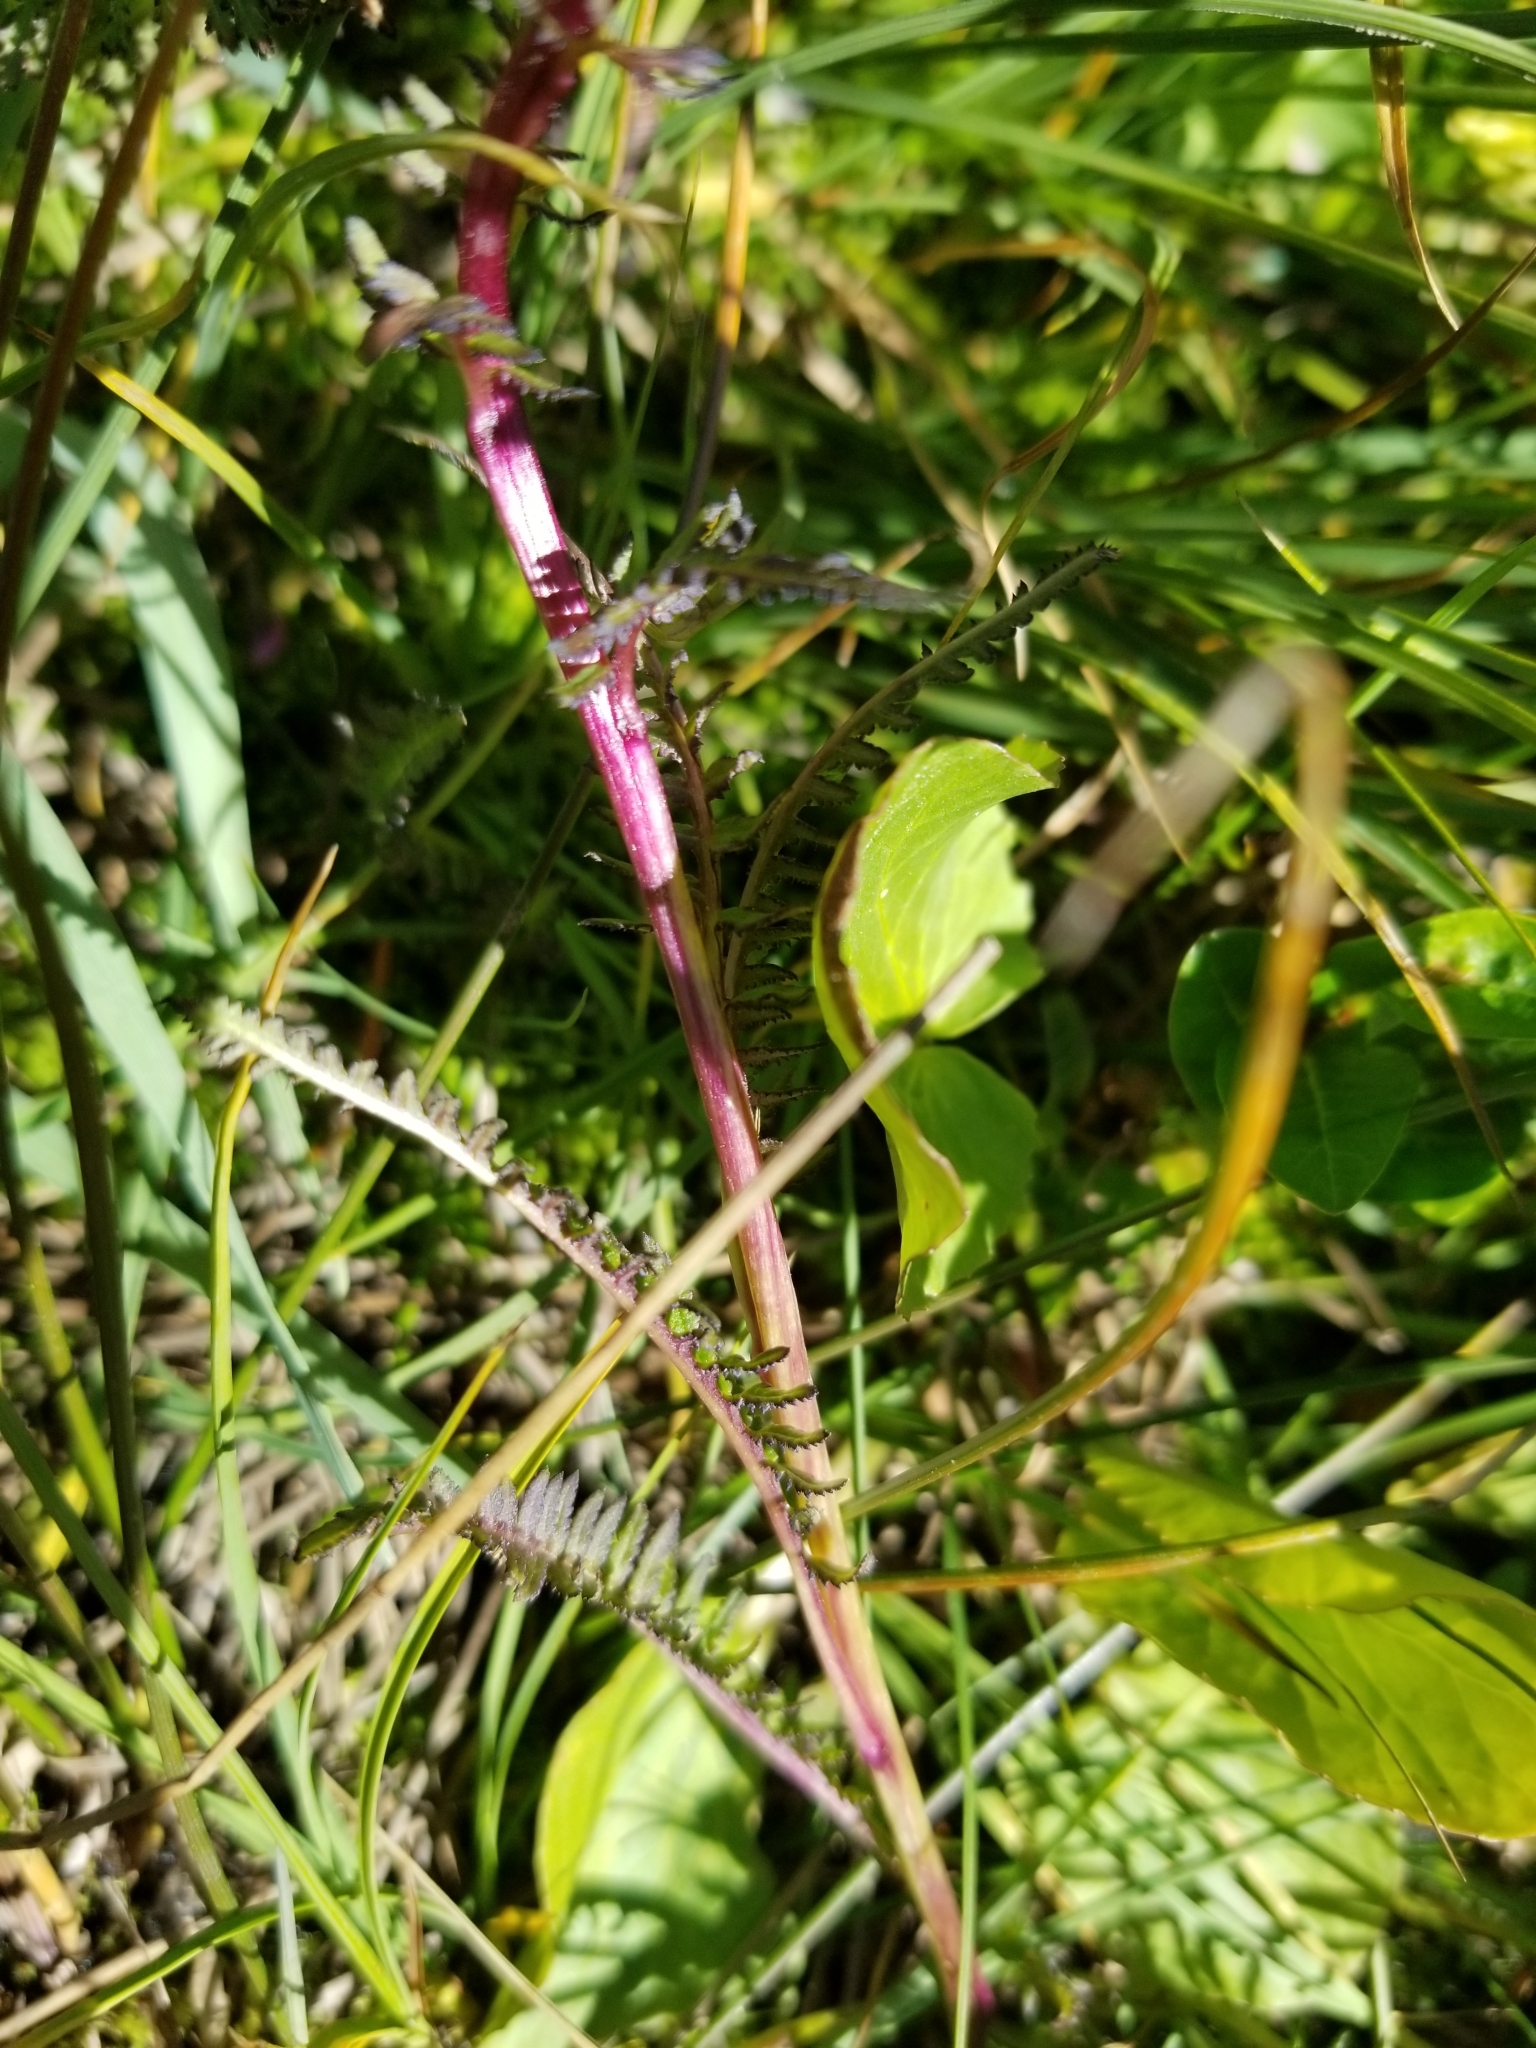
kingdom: Plantae
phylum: Tracheophyta
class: Magnoliopsida
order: Lamiales
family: Orobanchaceae
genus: Pedicularis
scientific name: Pedicularis groenlandica
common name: Elephant's-head
